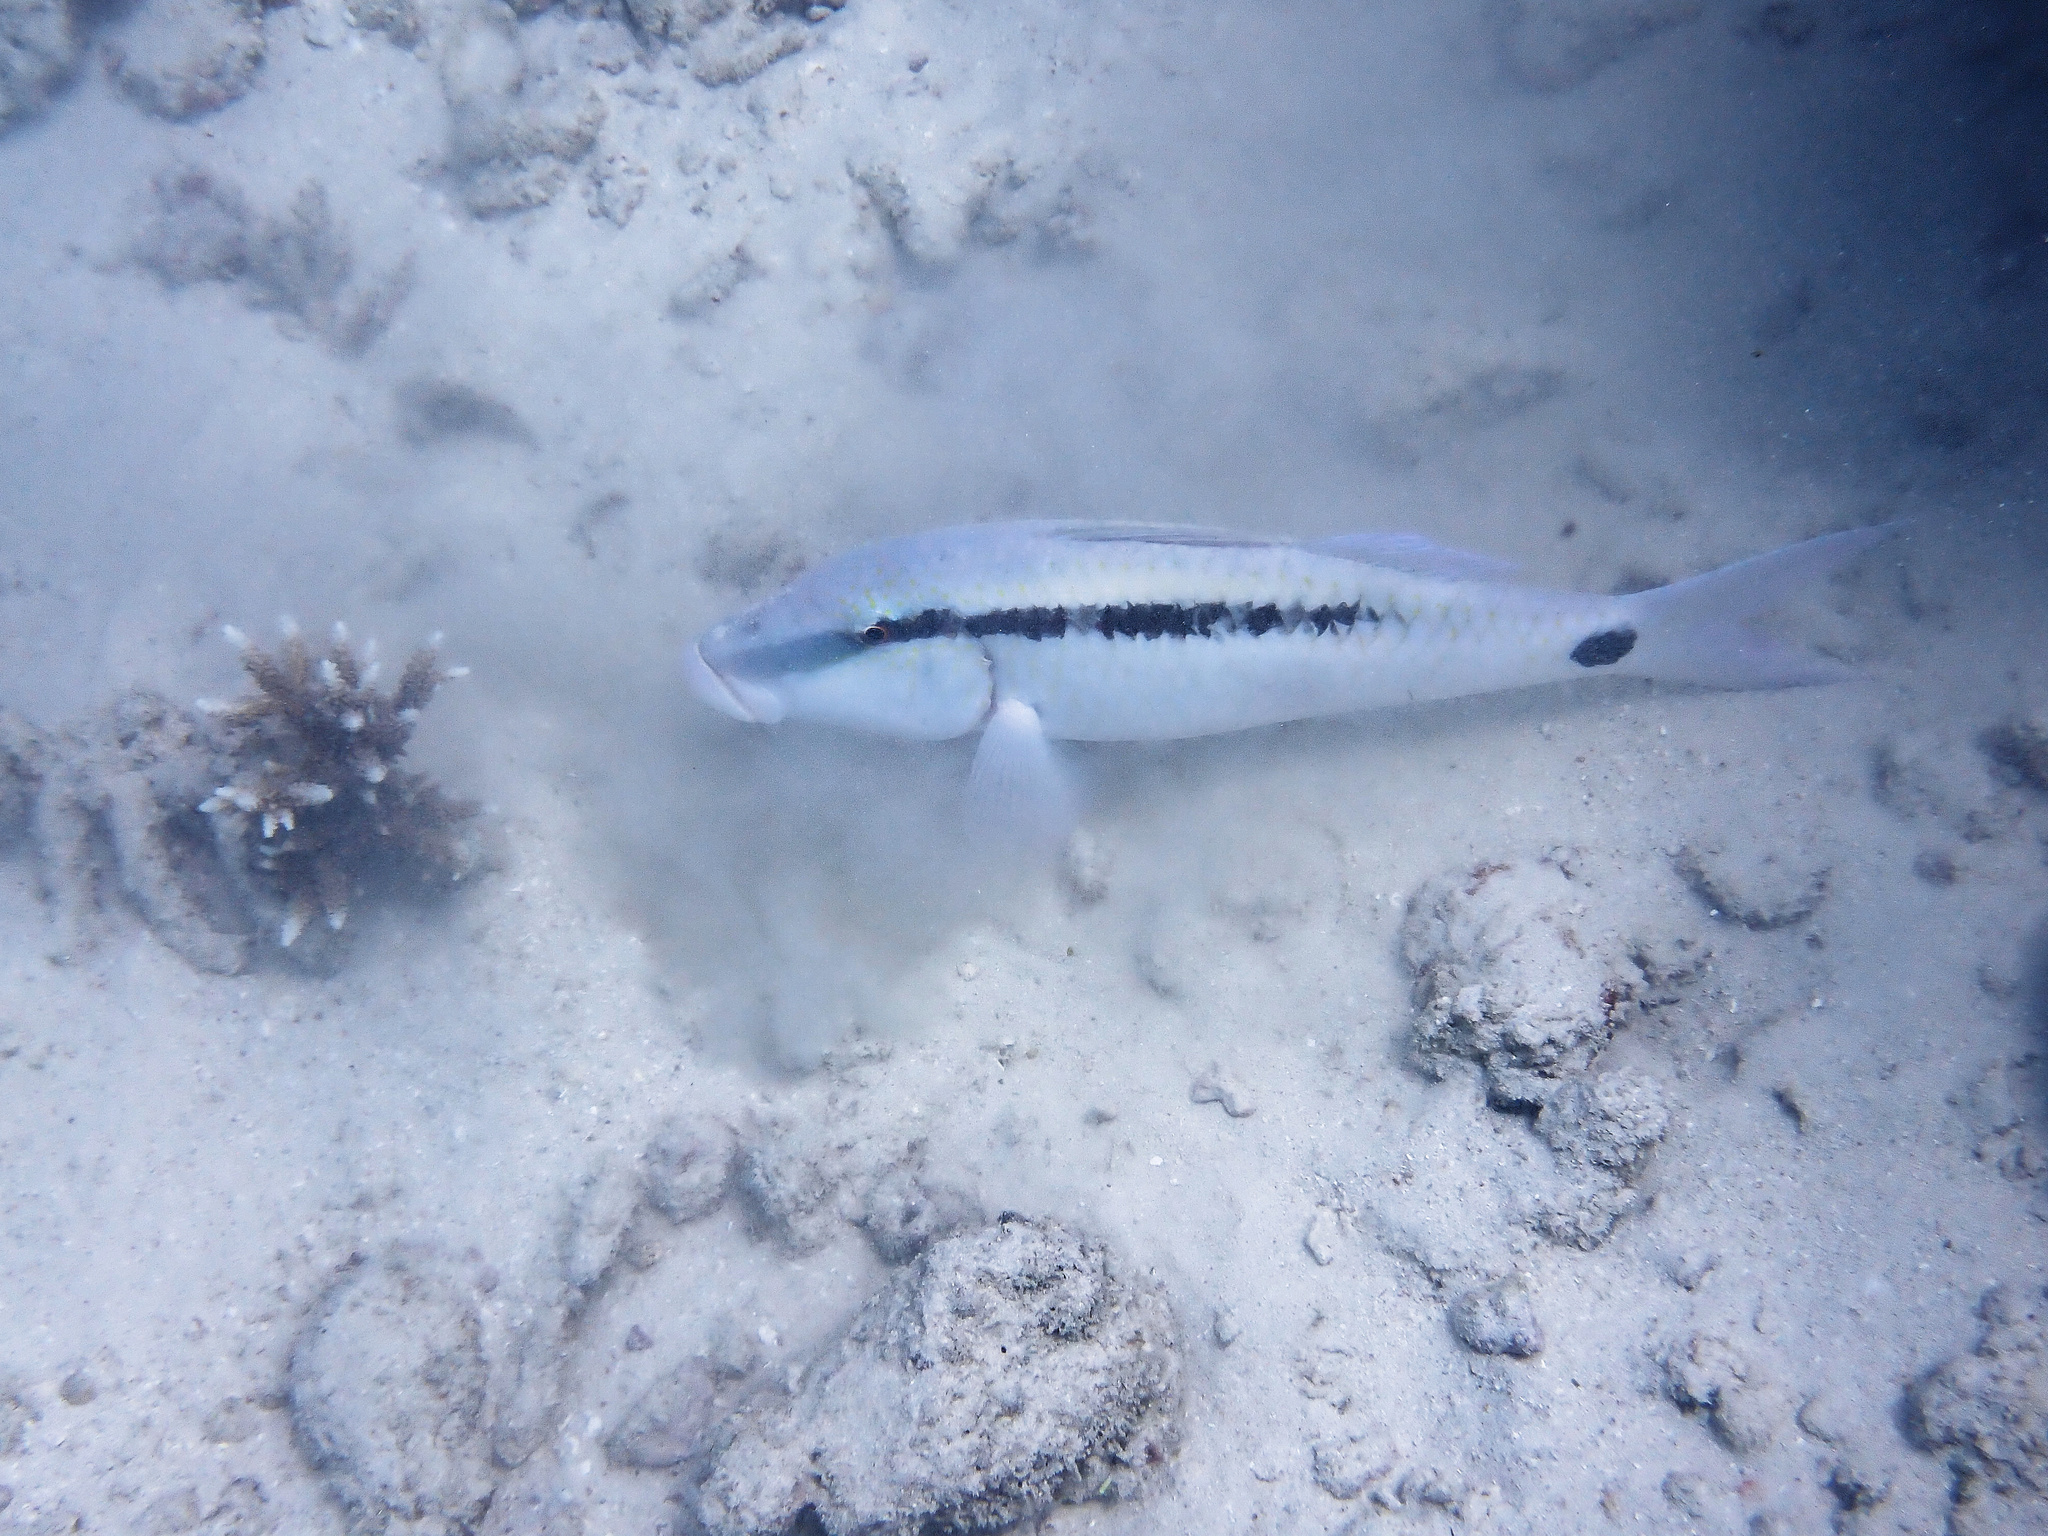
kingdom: Animalia
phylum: Chordata
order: Perciformes
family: Mullidae
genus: Parupeneus
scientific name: Parupeneus barberinus
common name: Dash-and-dot goatfish
